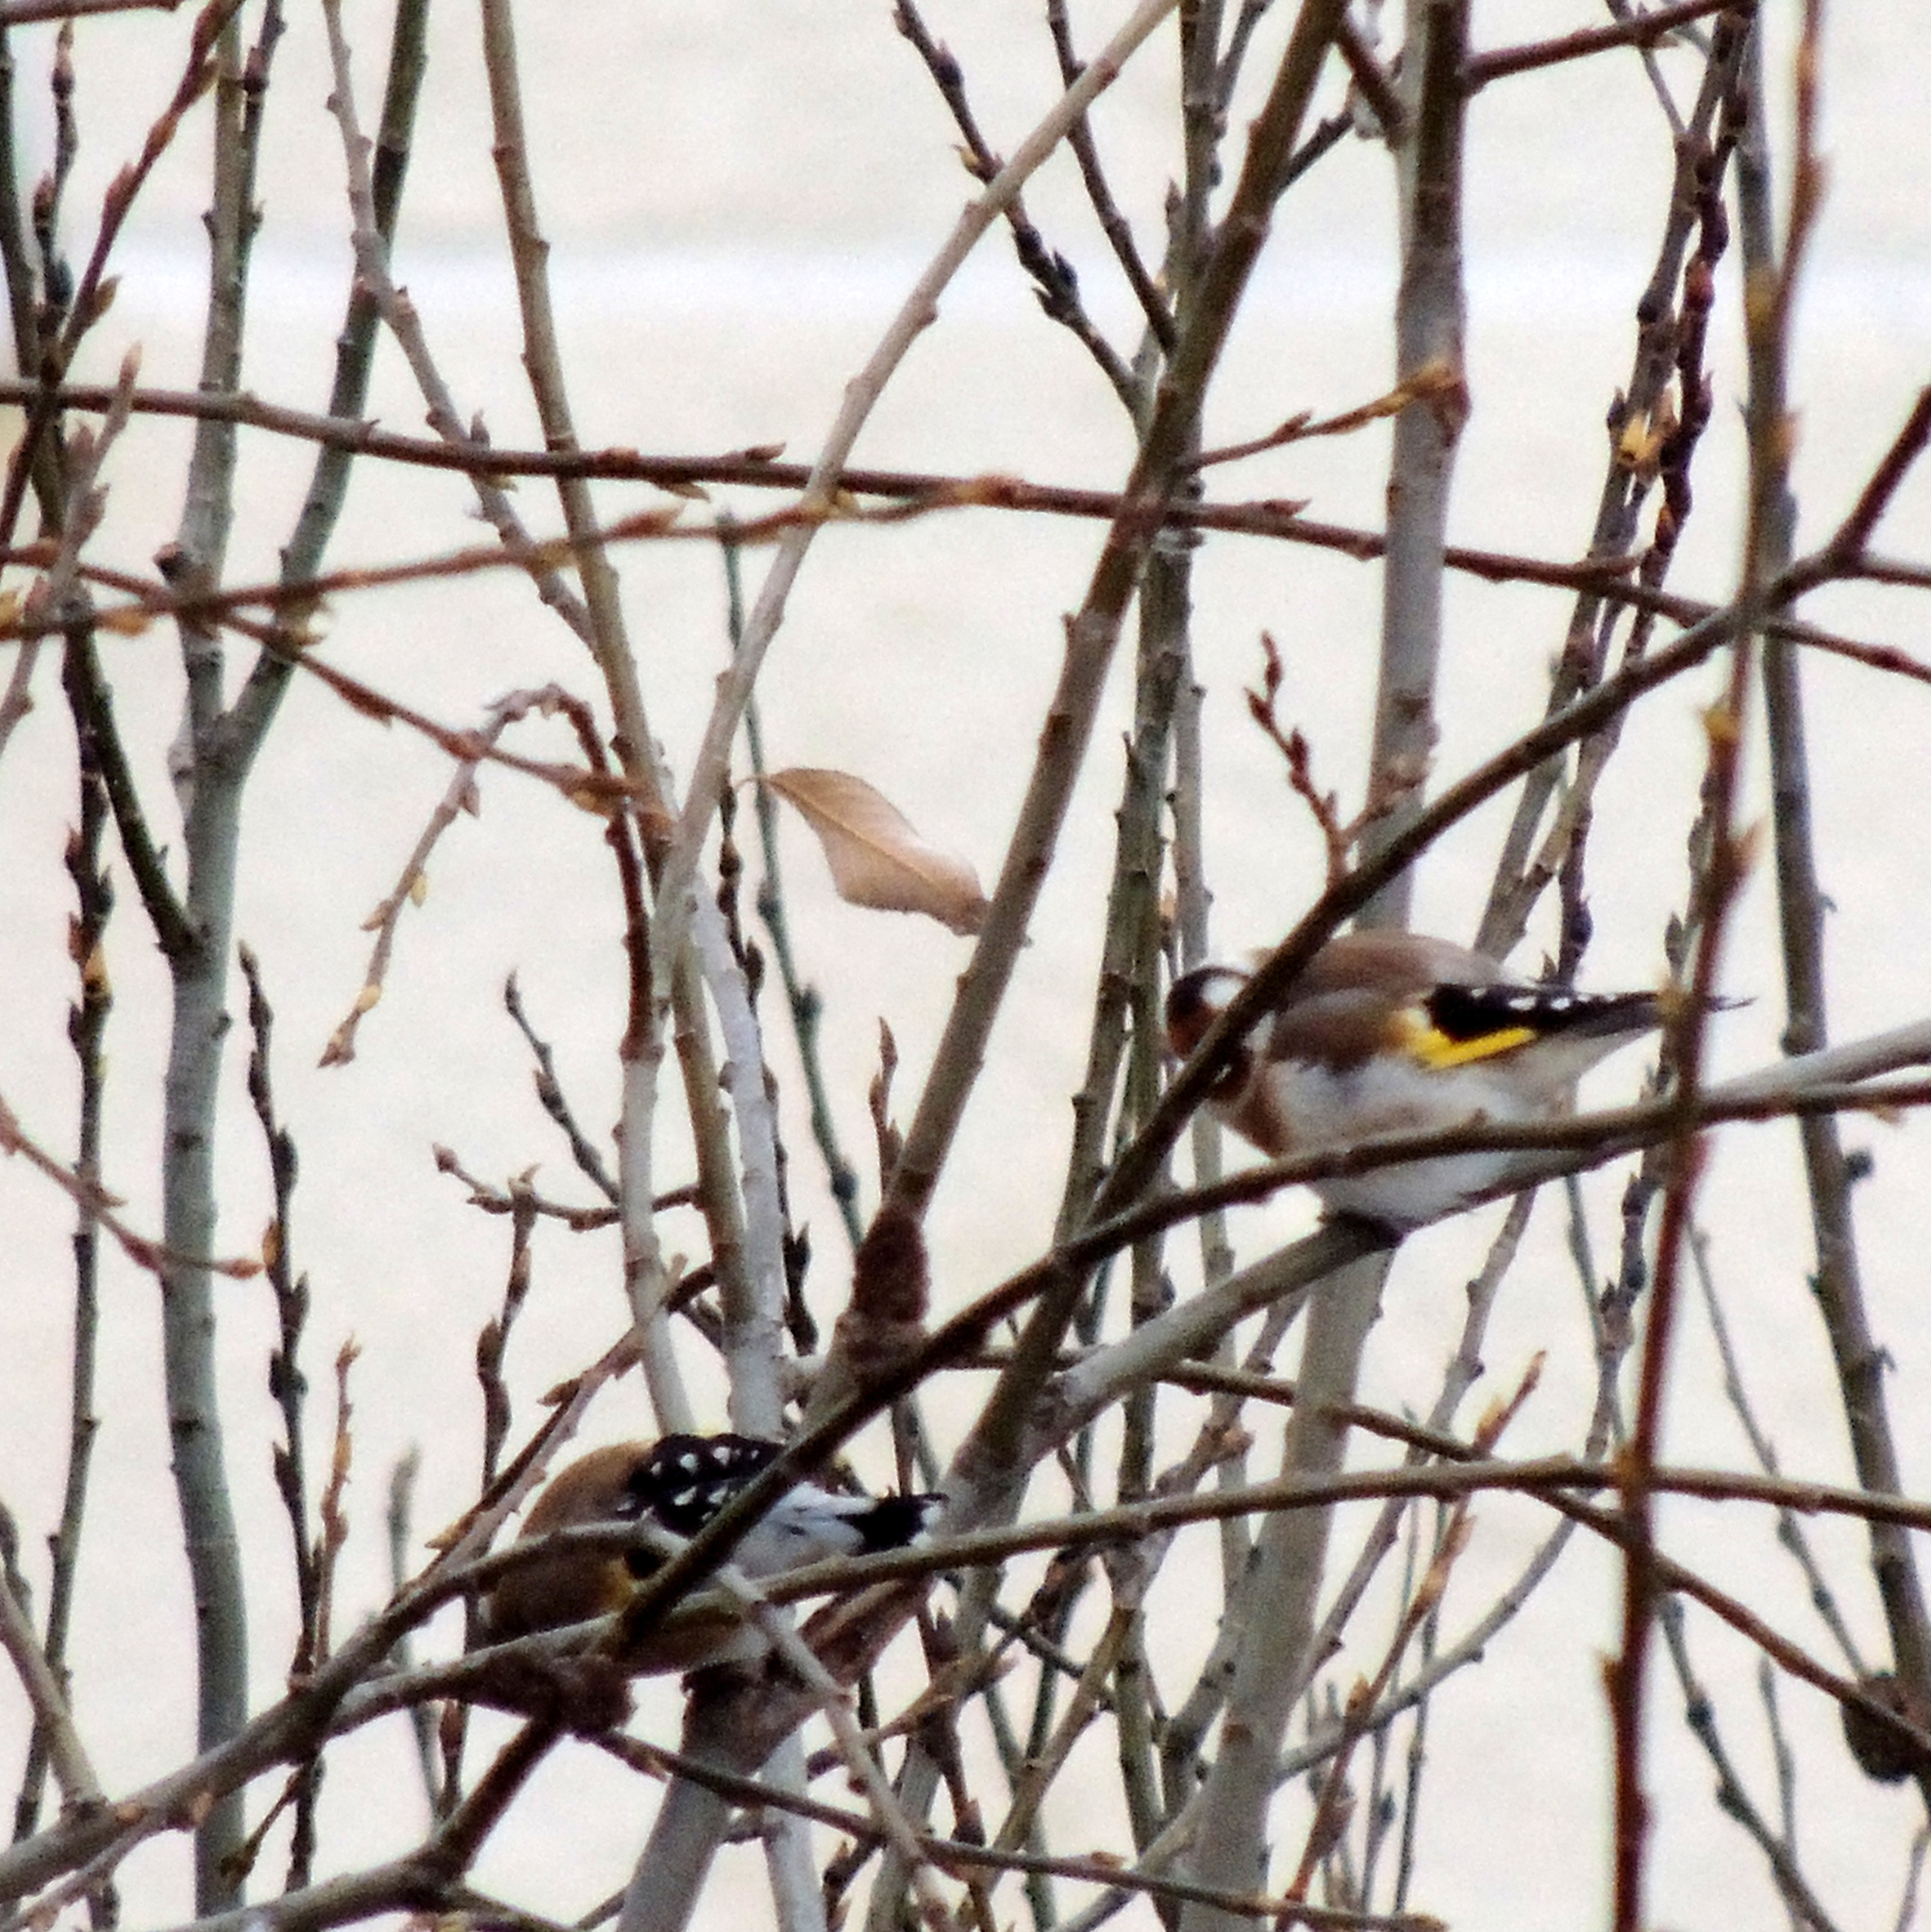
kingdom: Animalia
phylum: Chordata
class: Aves
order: Passeriformes
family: Fringillidae
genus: Carduelis
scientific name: Carduelis carduelis
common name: European goldfinch
